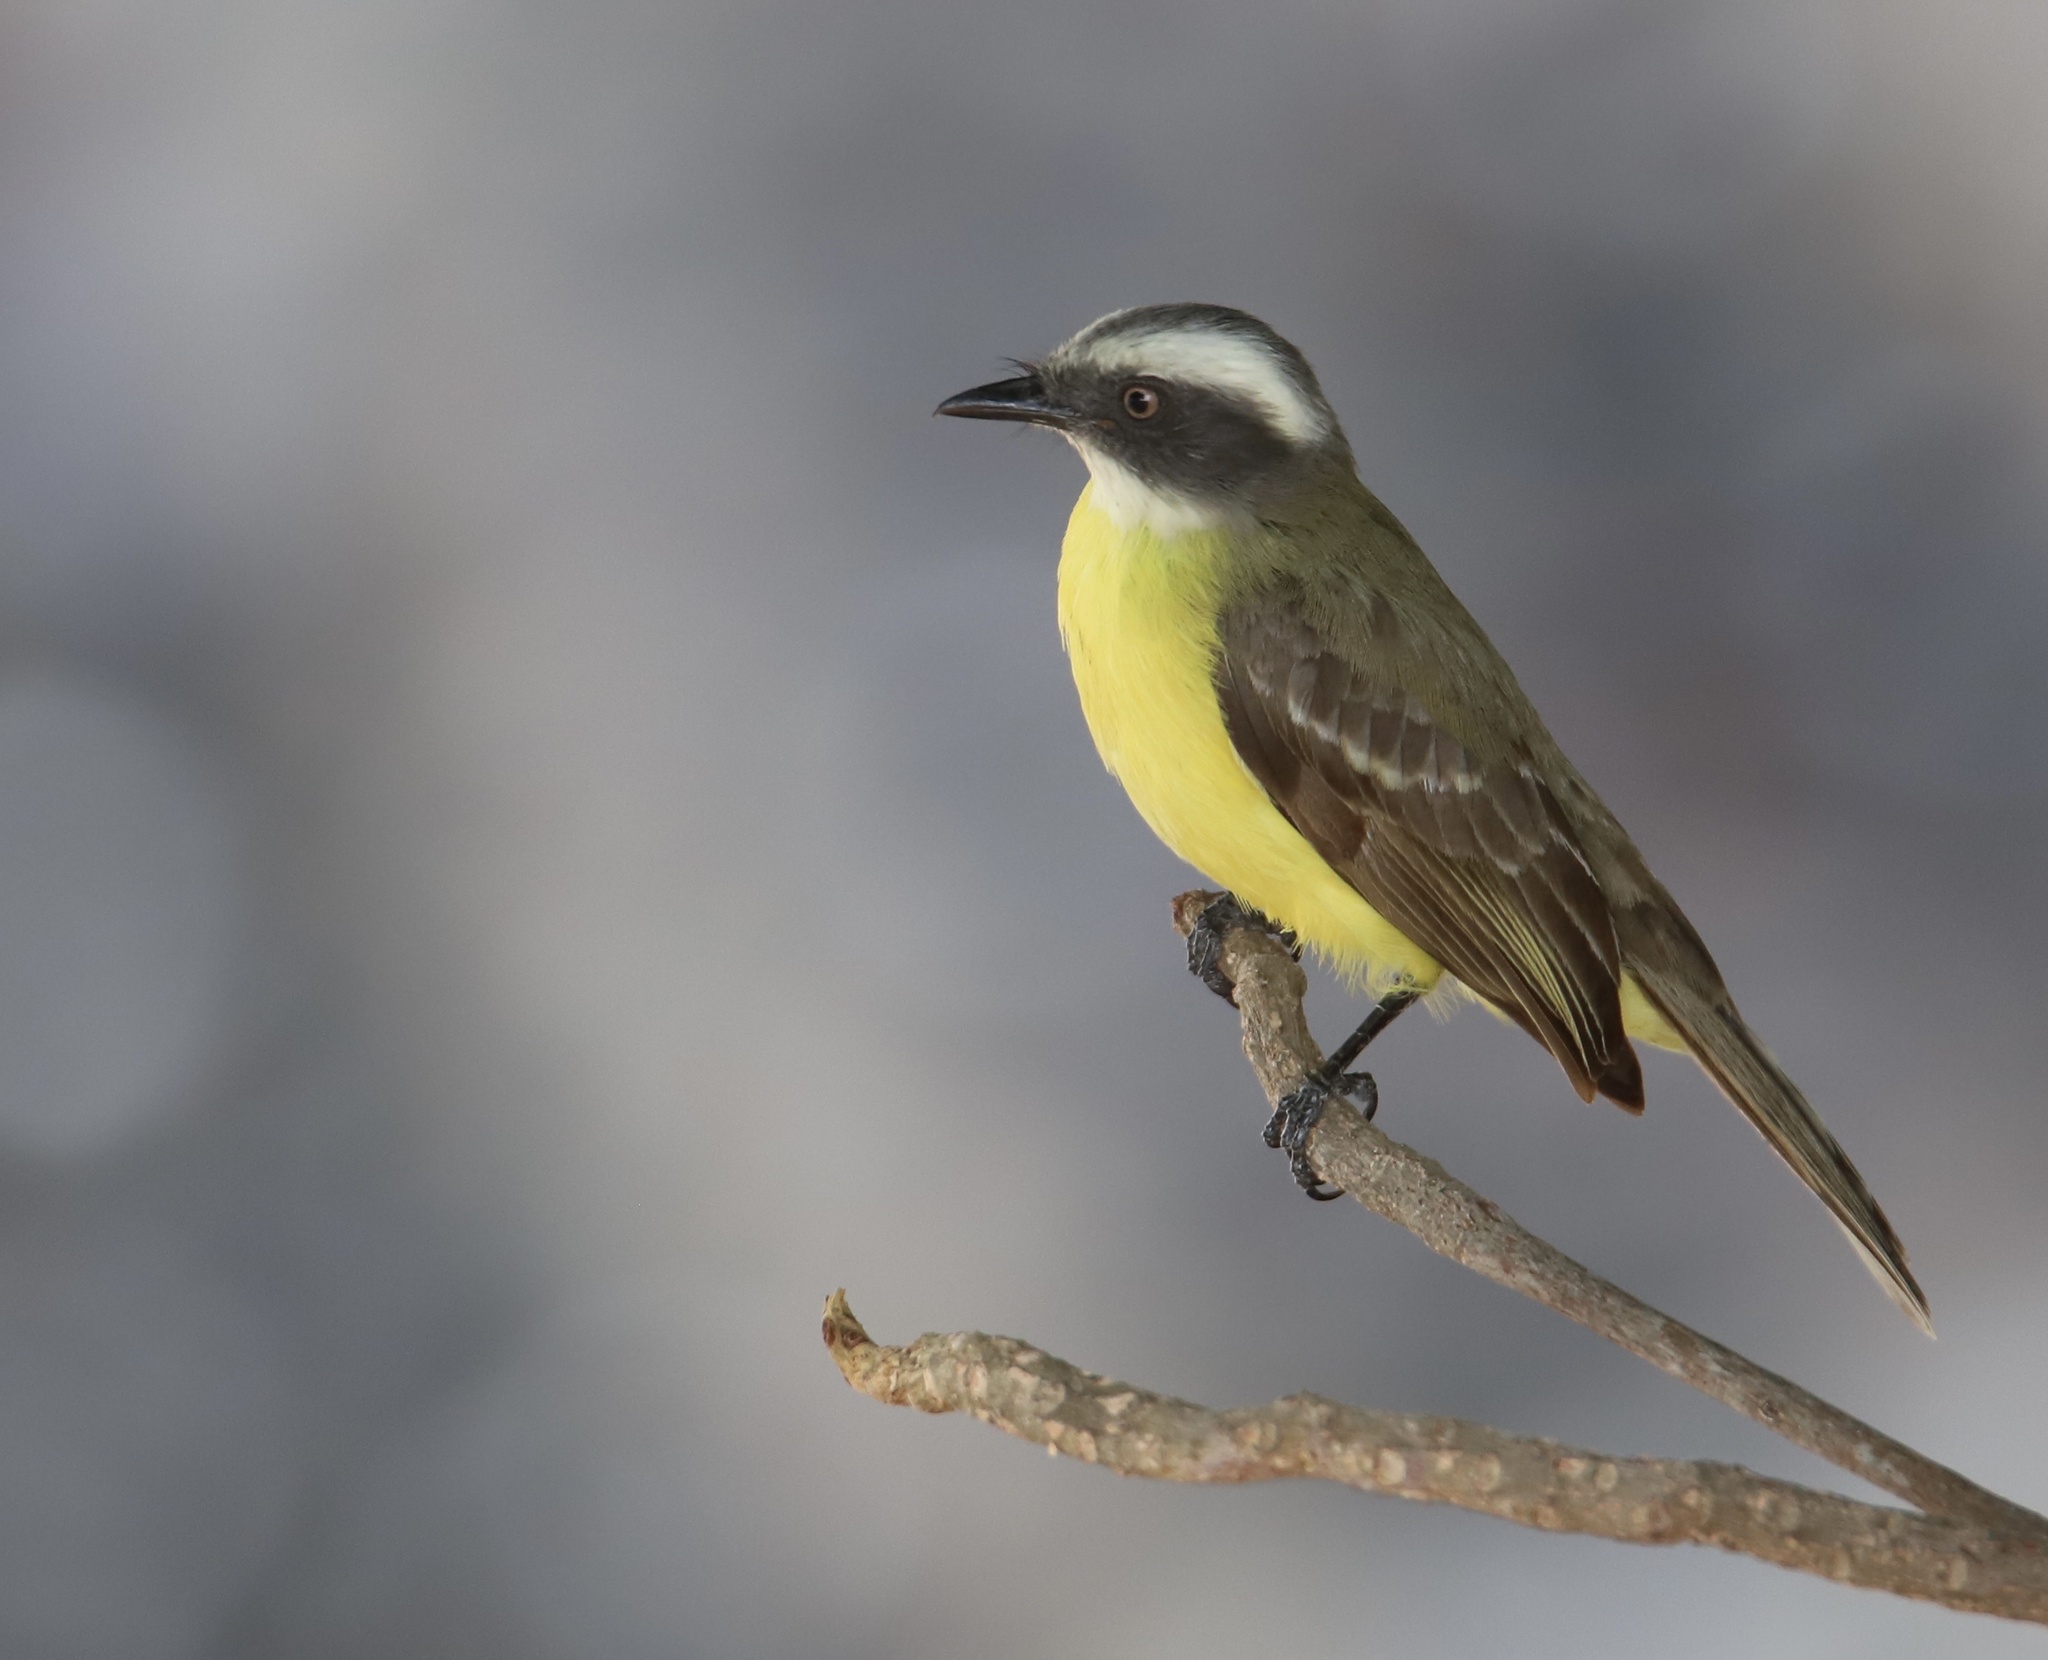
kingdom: Animalia
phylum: Chordata
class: Aves
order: Passeriformes
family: Tyrannidae
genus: Myiozetetes
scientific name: Myiozetetes similis
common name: Social flycatcher
